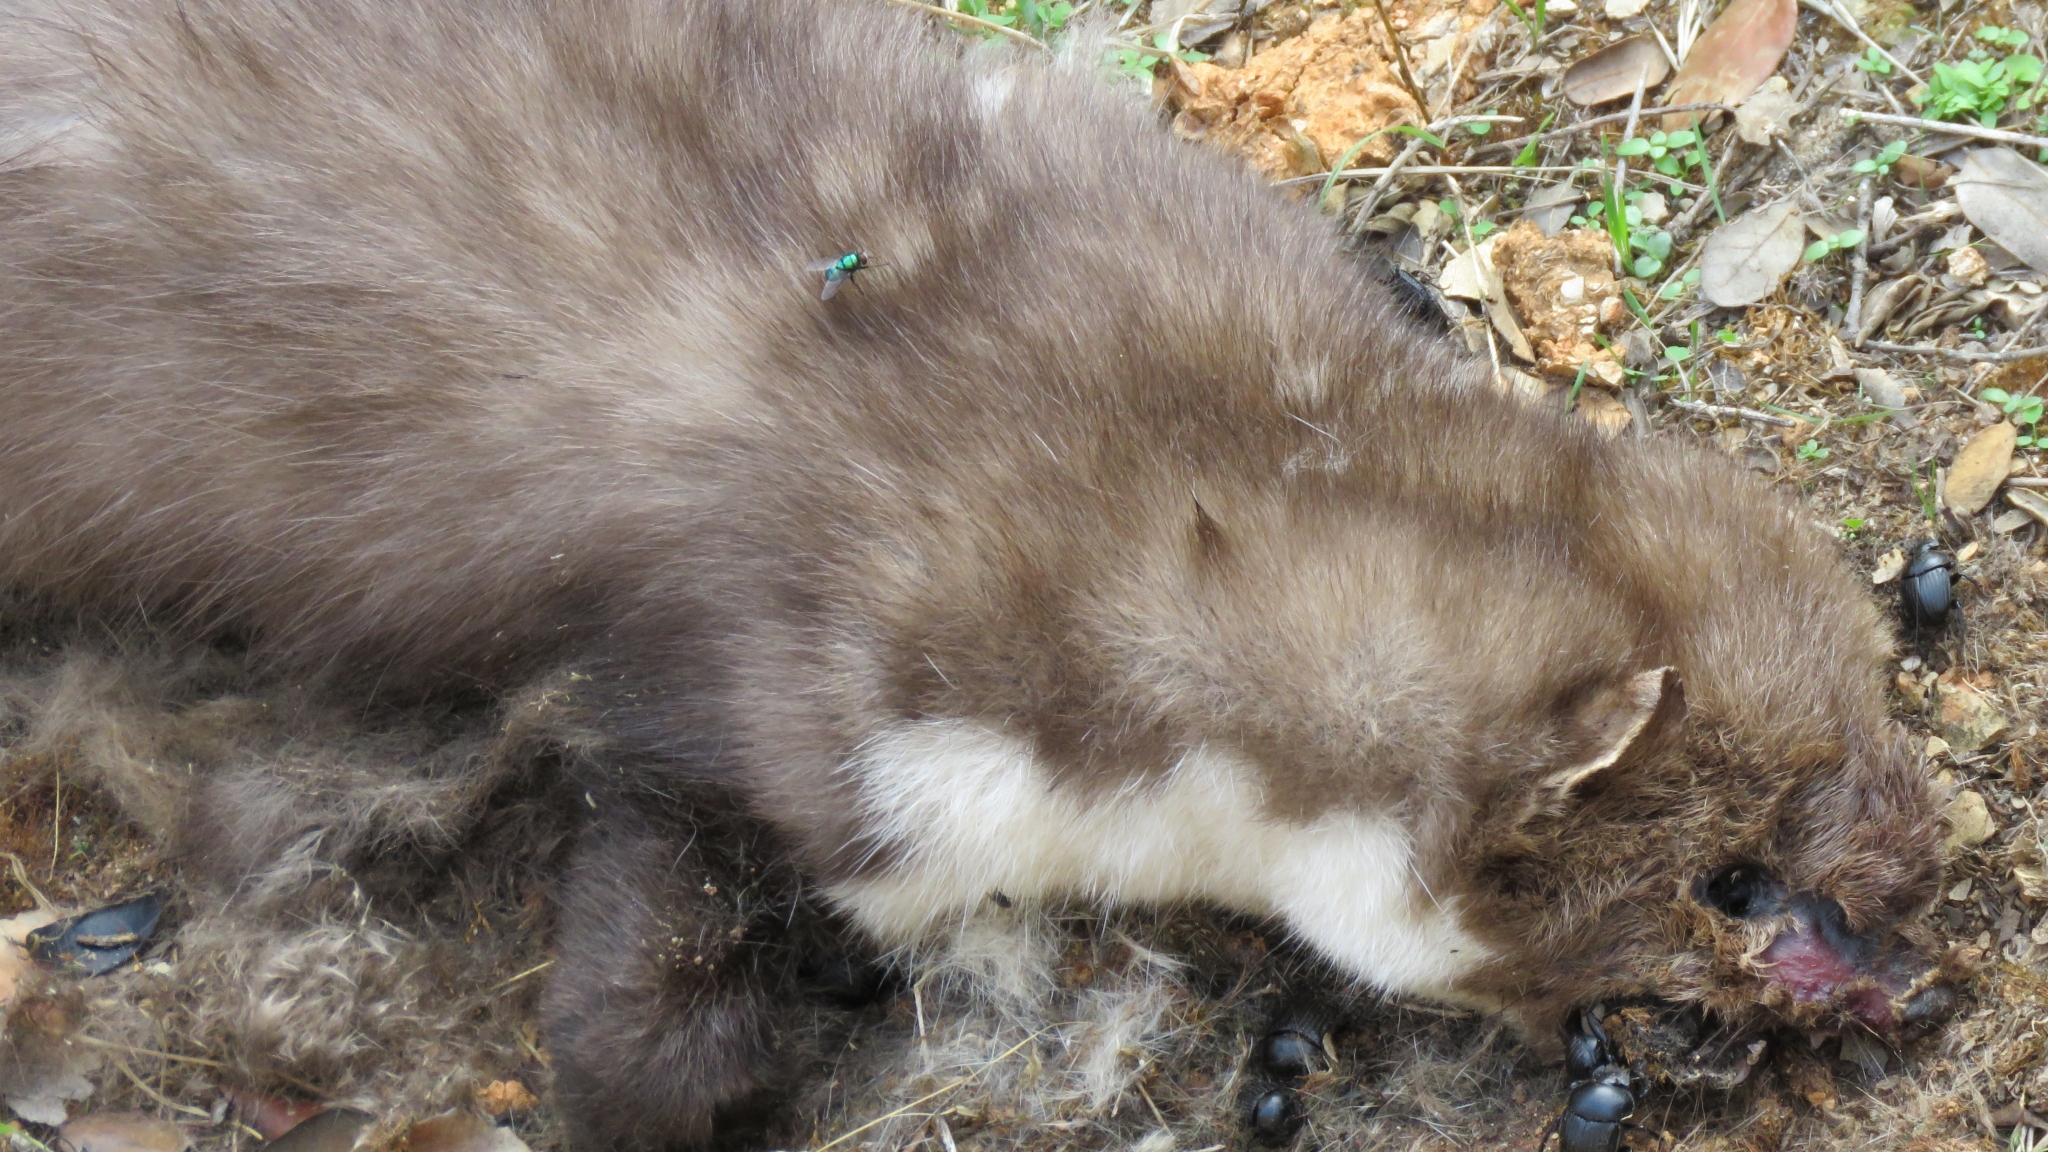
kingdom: Animalia
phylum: Chordata
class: Mammalia
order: Carnivora
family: Mustelidae
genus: Martes
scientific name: Martes foina
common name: Beech marten
